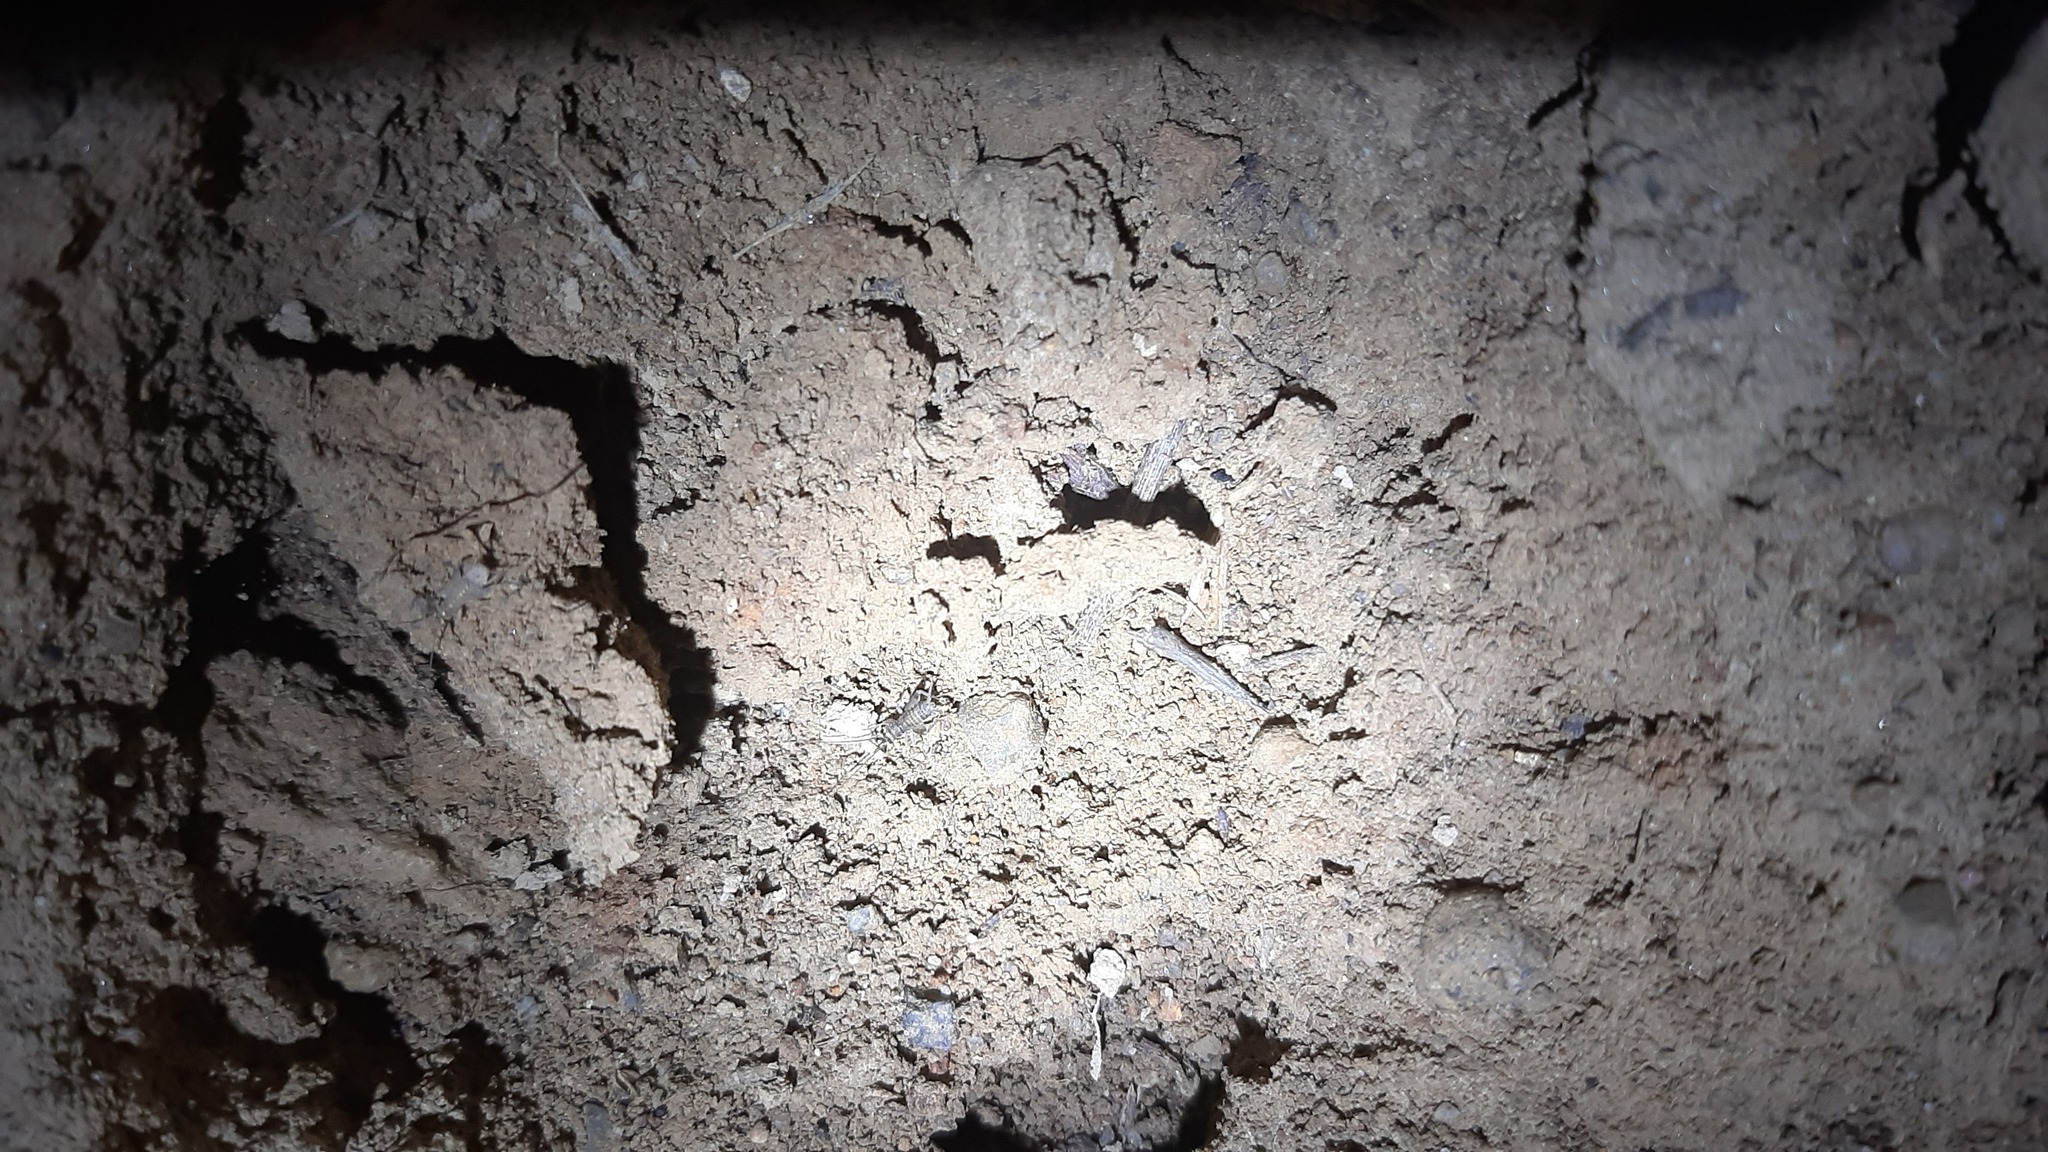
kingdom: Animalia
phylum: Arthropoda
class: Insecta
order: Orthoptera
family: Gryllidae
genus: Eumodicogryllus
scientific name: Eumodicogryllus bordigalensis
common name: Bordeaux cricket
